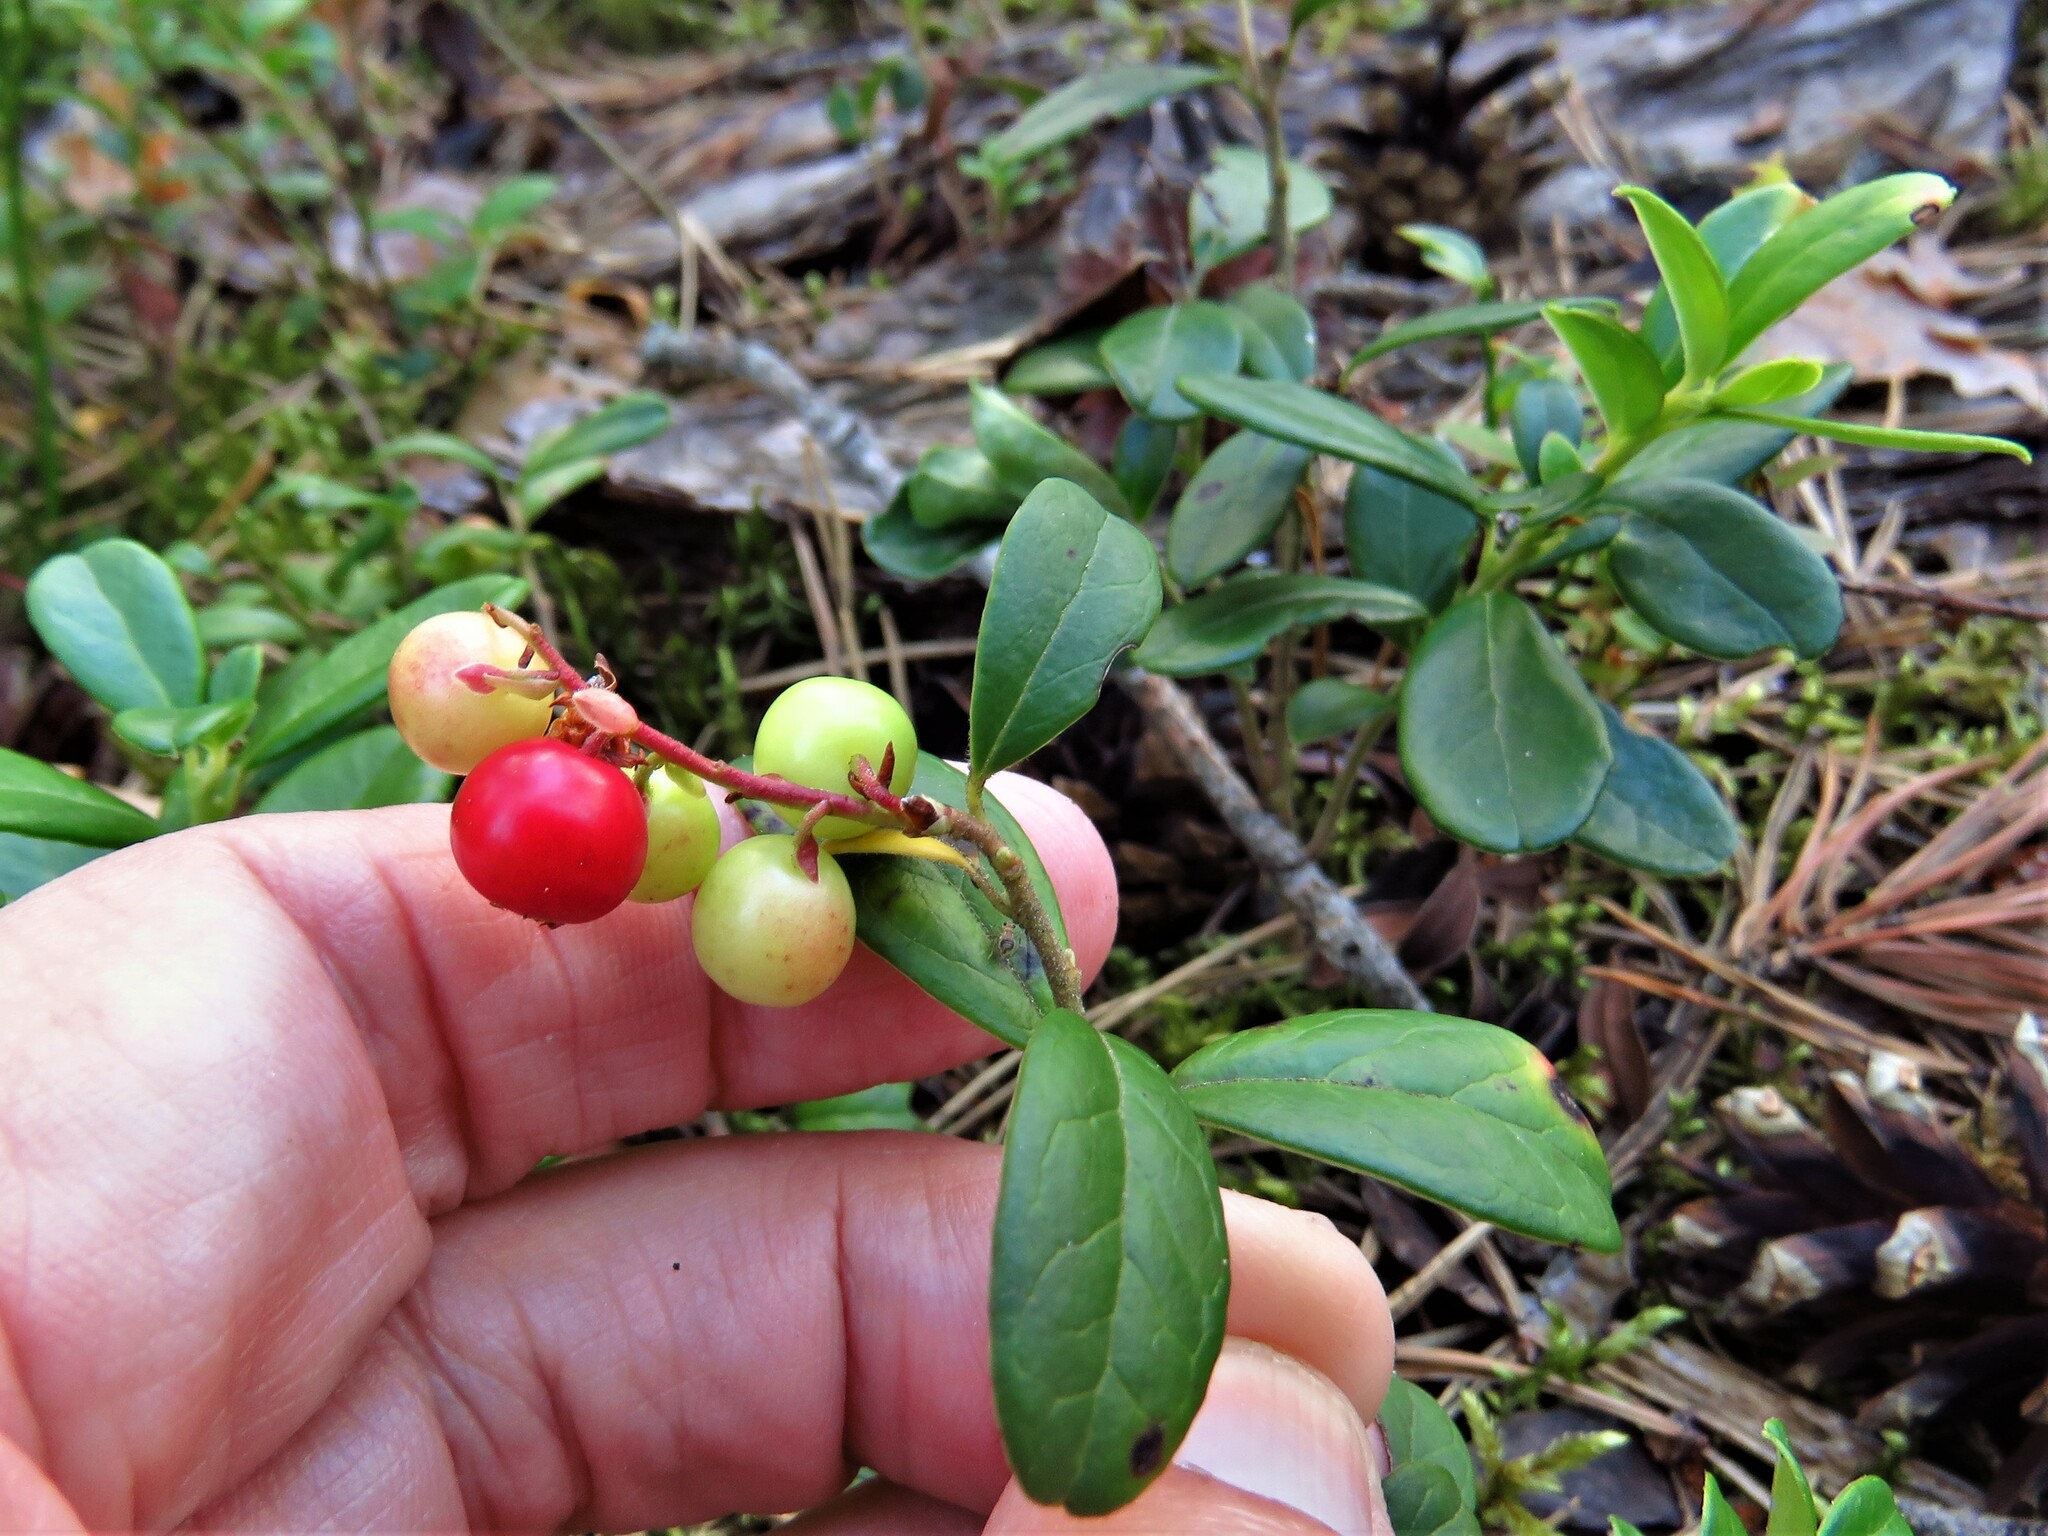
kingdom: Plantae
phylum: Tracheophyta
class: Magnoliopsida
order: Ericales
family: Ericaceae
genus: Vaccinium
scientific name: Vaccinium vitis-idaea
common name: Cowberry
